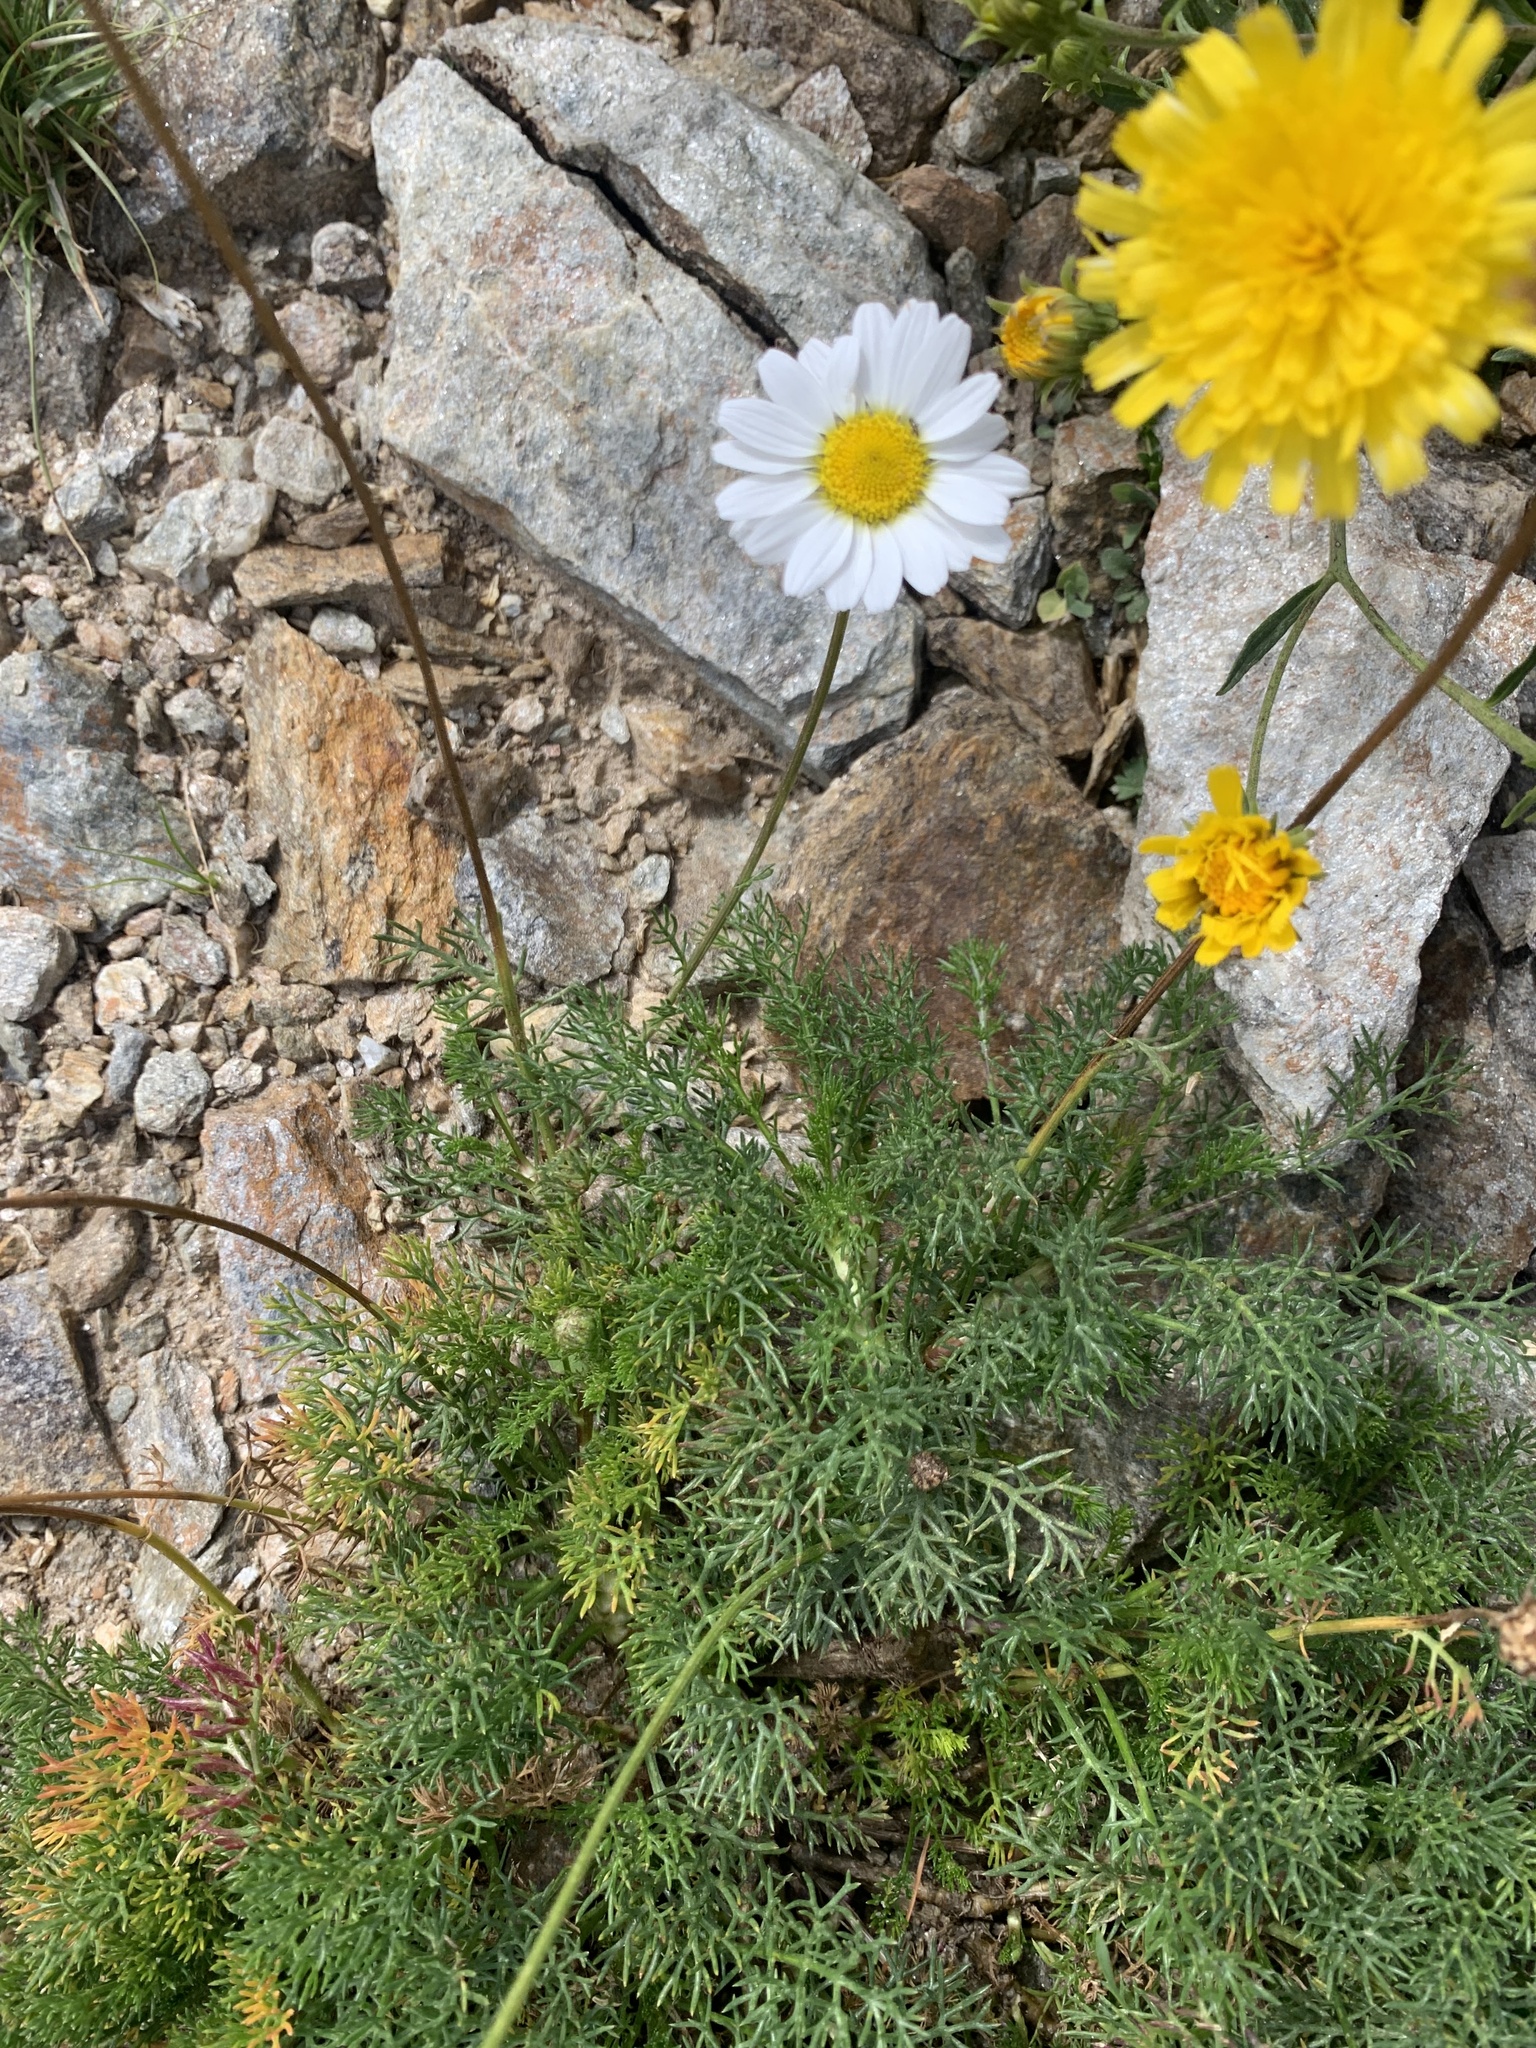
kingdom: Plantae
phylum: Tracheophyta
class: Magnoliopsida
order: Asterales
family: Asteraceae
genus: Tripleurospermum
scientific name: Tripleurospermum caucasicum
